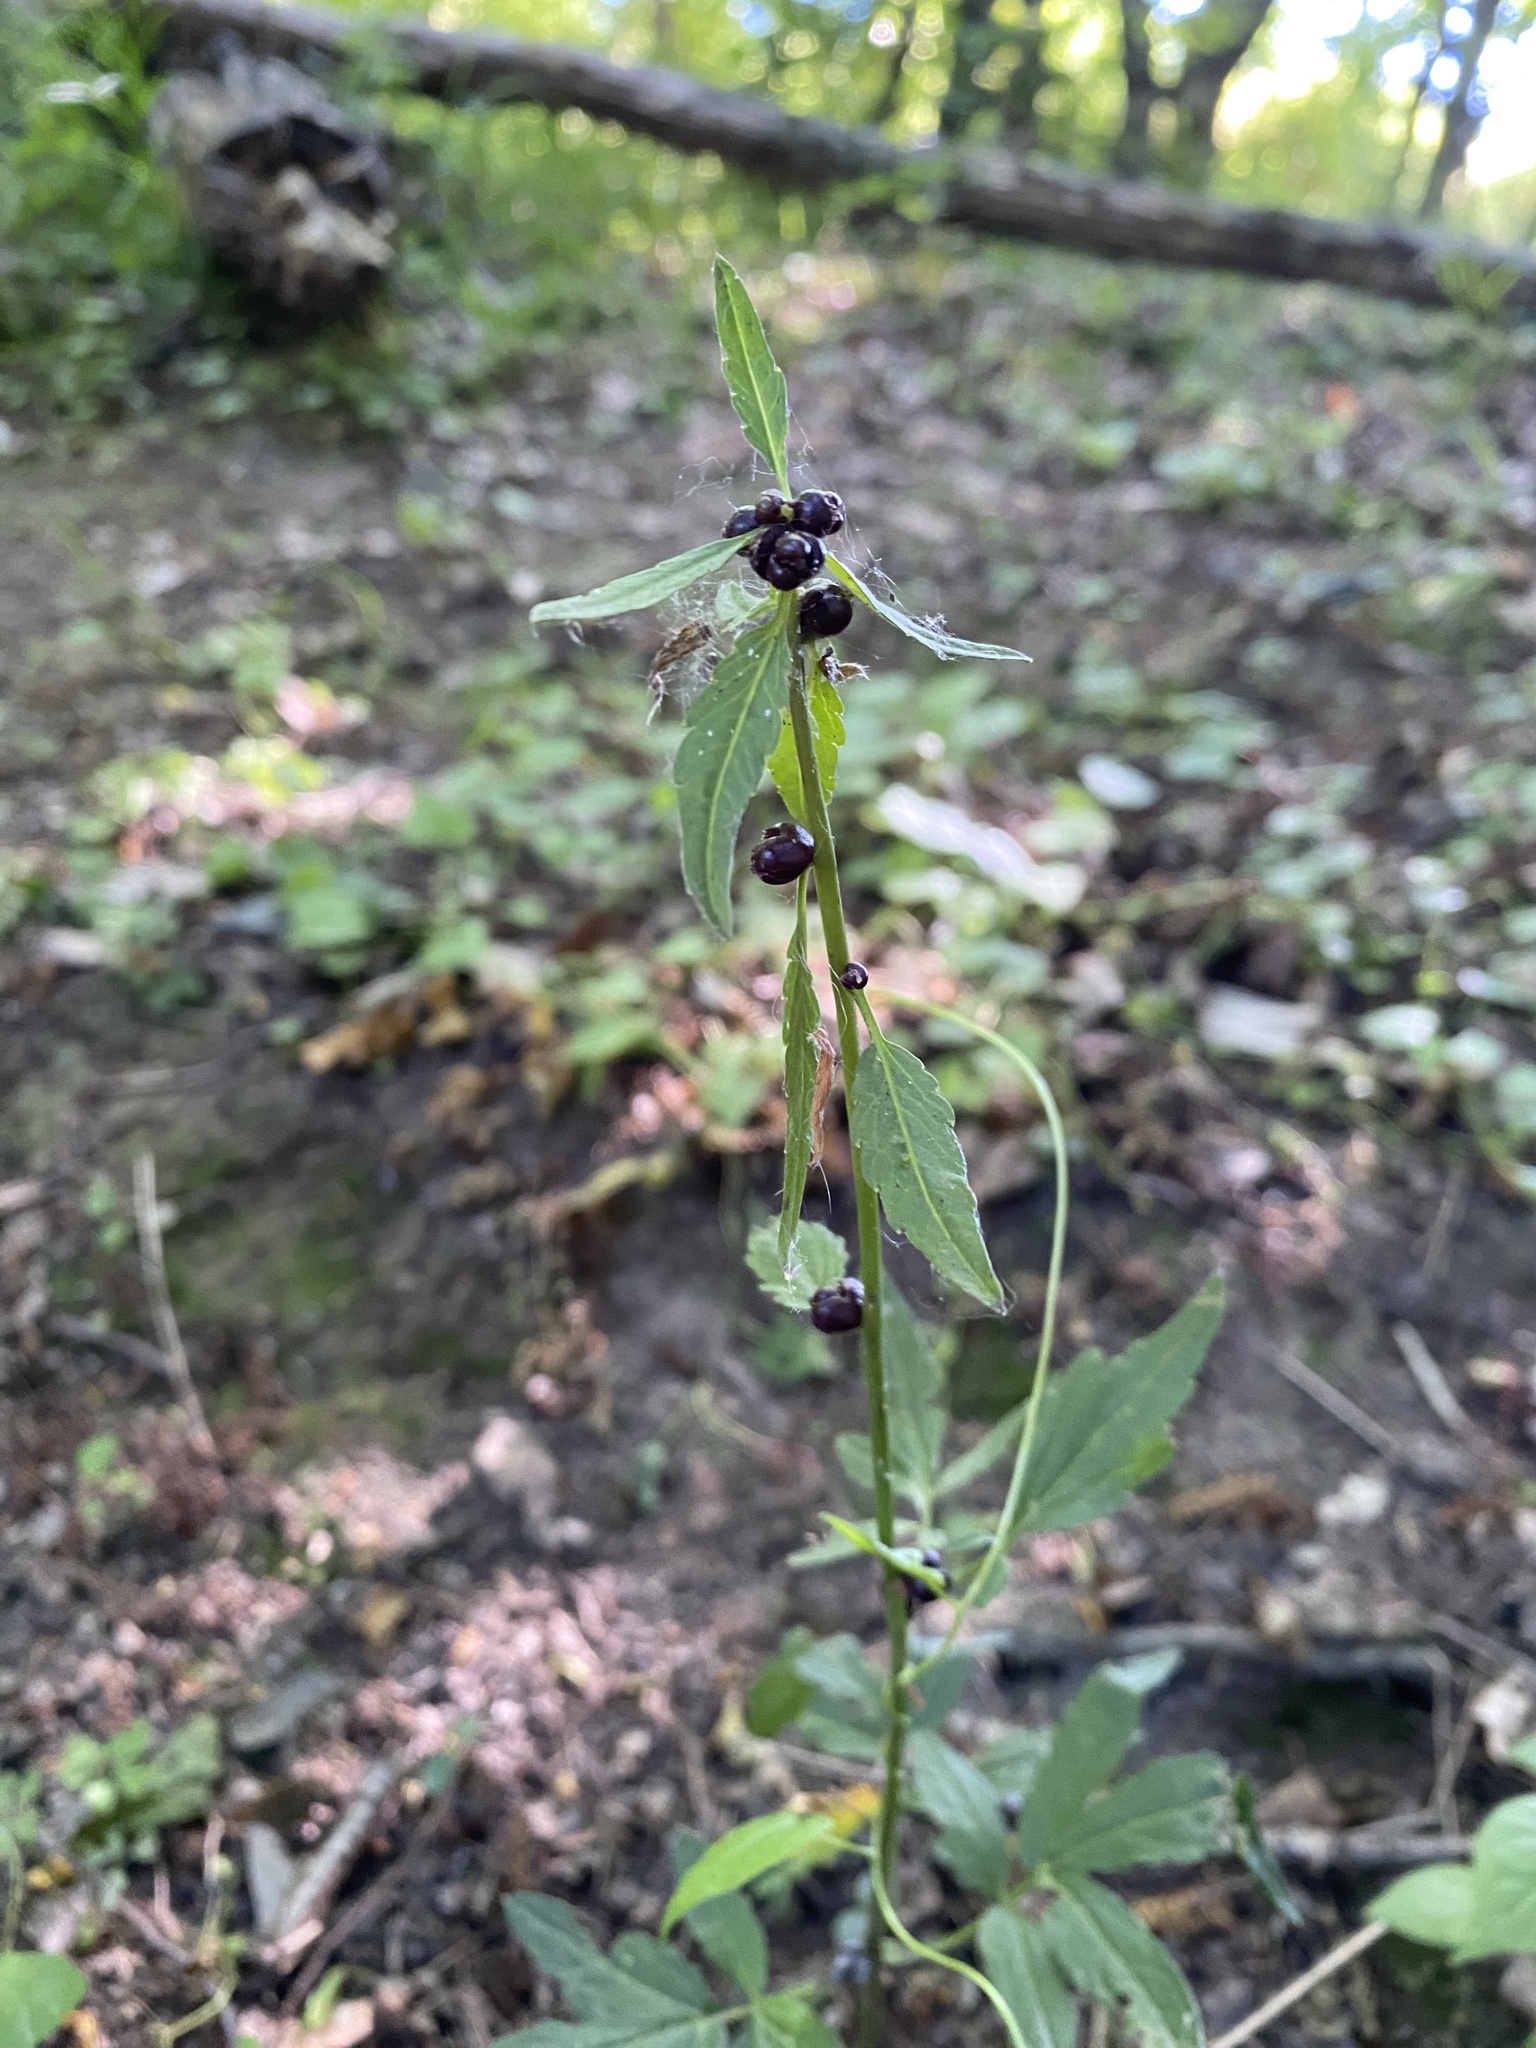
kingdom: Plantae
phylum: Tracheophyta
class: Magnoliopsida
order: Brassicales
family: Brassicaceae
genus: Cardamine
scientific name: Cardamine bulbifera
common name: Coralroot bittercress
